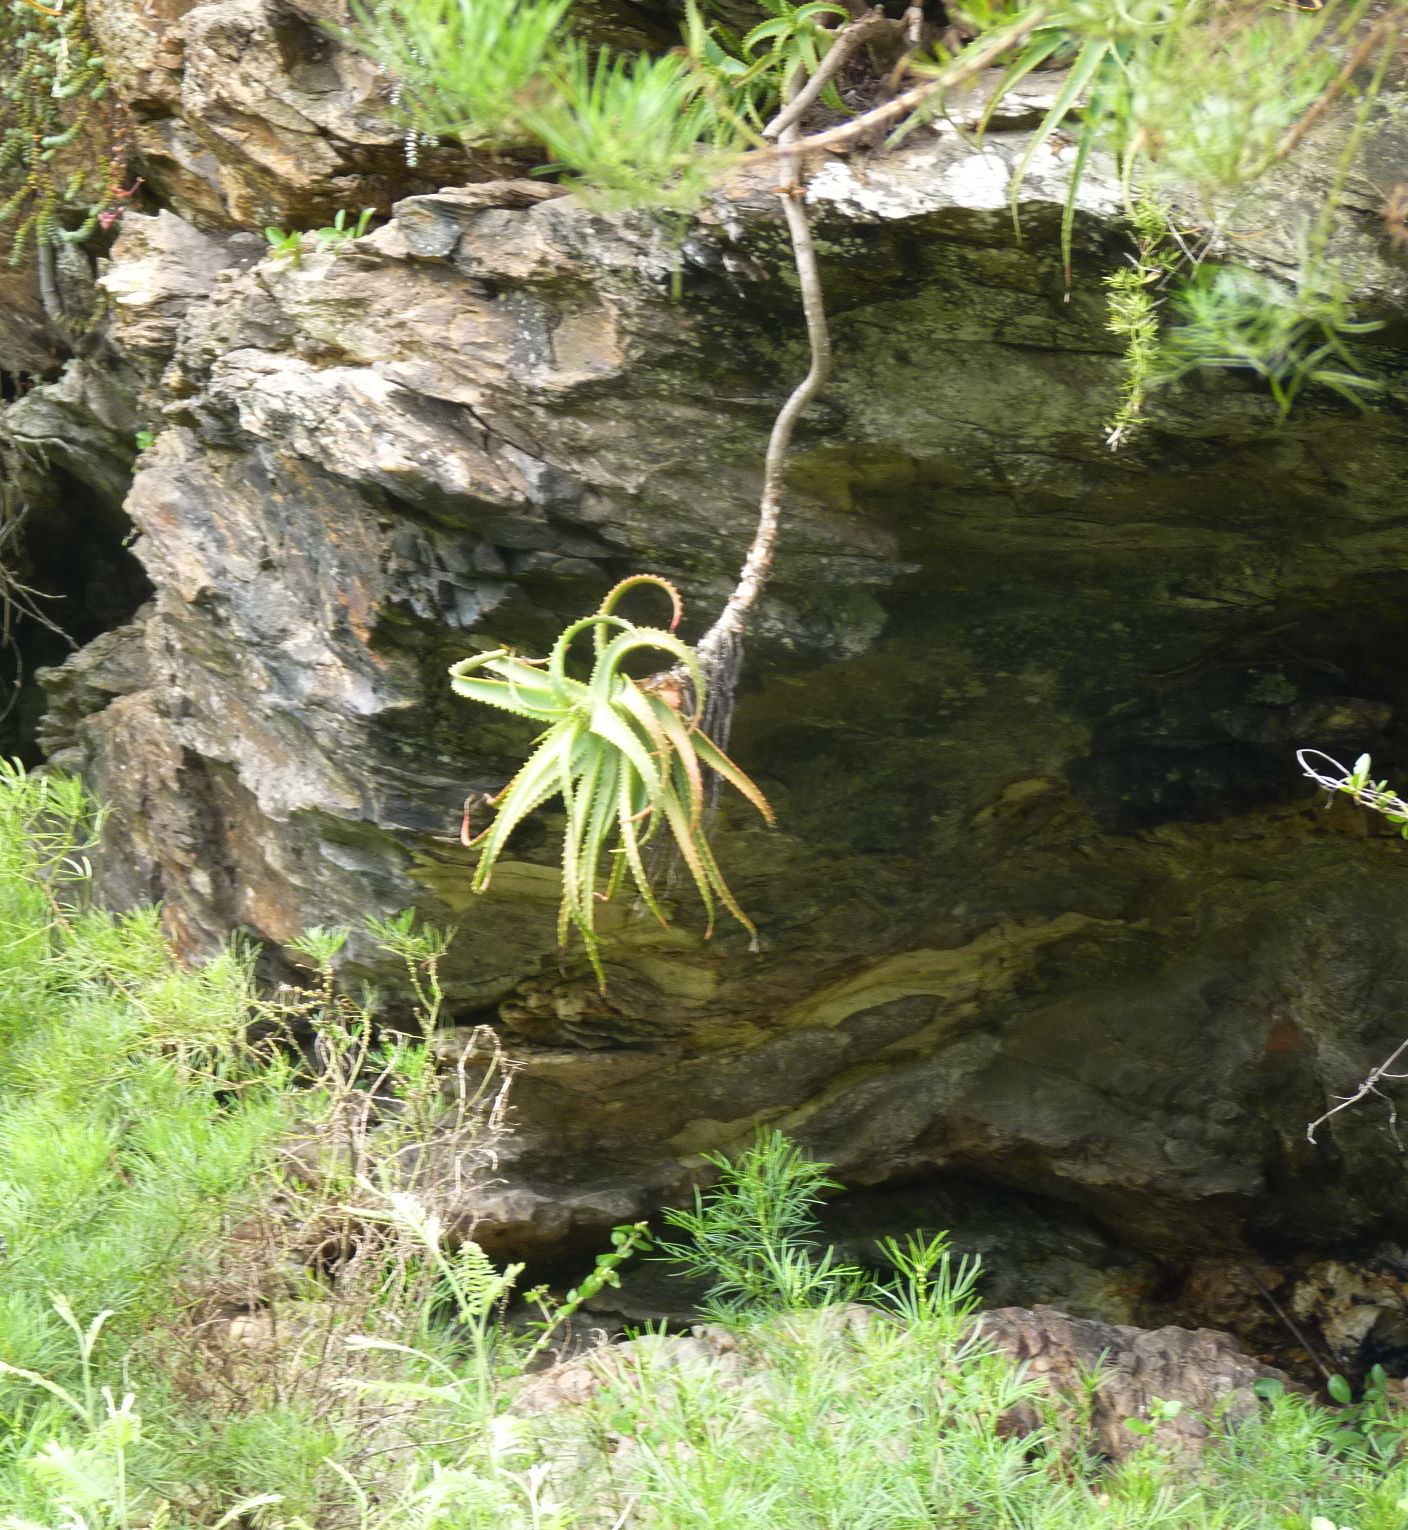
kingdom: Plantae
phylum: Tracheophyta
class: Liliopsida
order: Asparagales
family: Asphodelaceae
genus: Aloe
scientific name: Aloe arborescens
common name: Candelabra aloe
